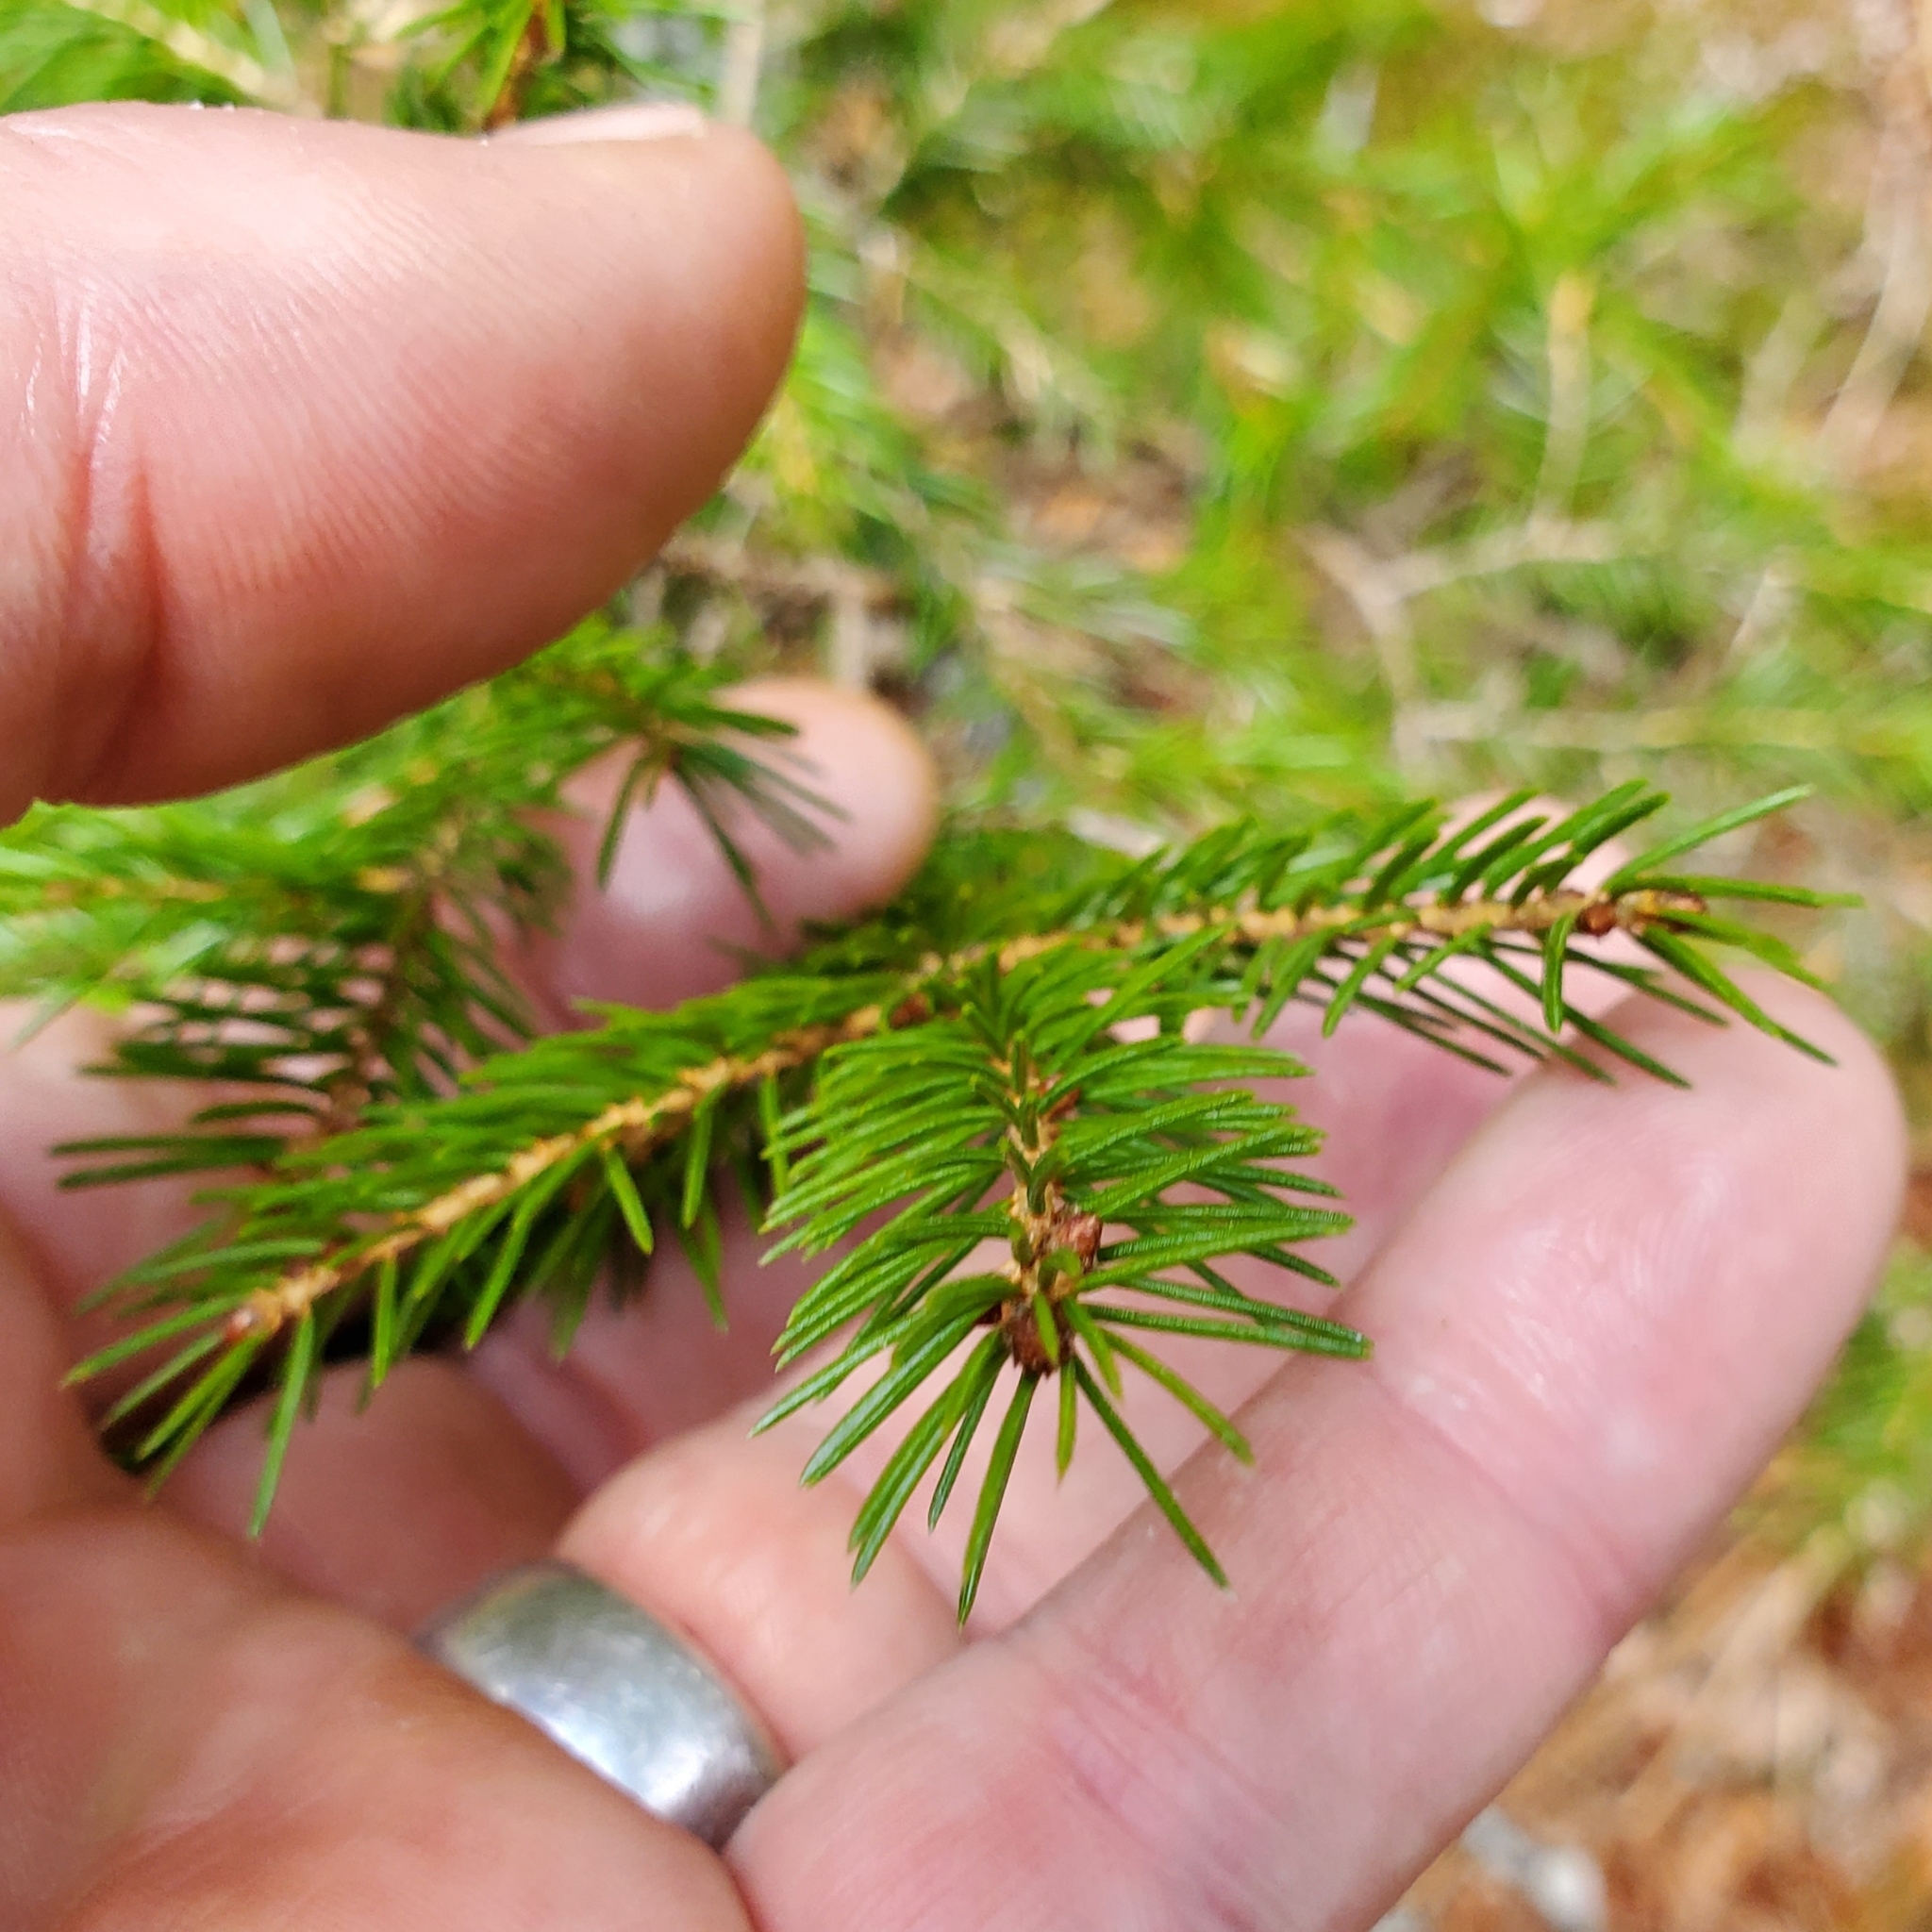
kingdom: Plantae
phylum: Tracheophyta
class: Pinopsida
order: Pinales
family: Pinaceae
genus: Picea
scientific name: Picea rubens
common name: Red spruce
